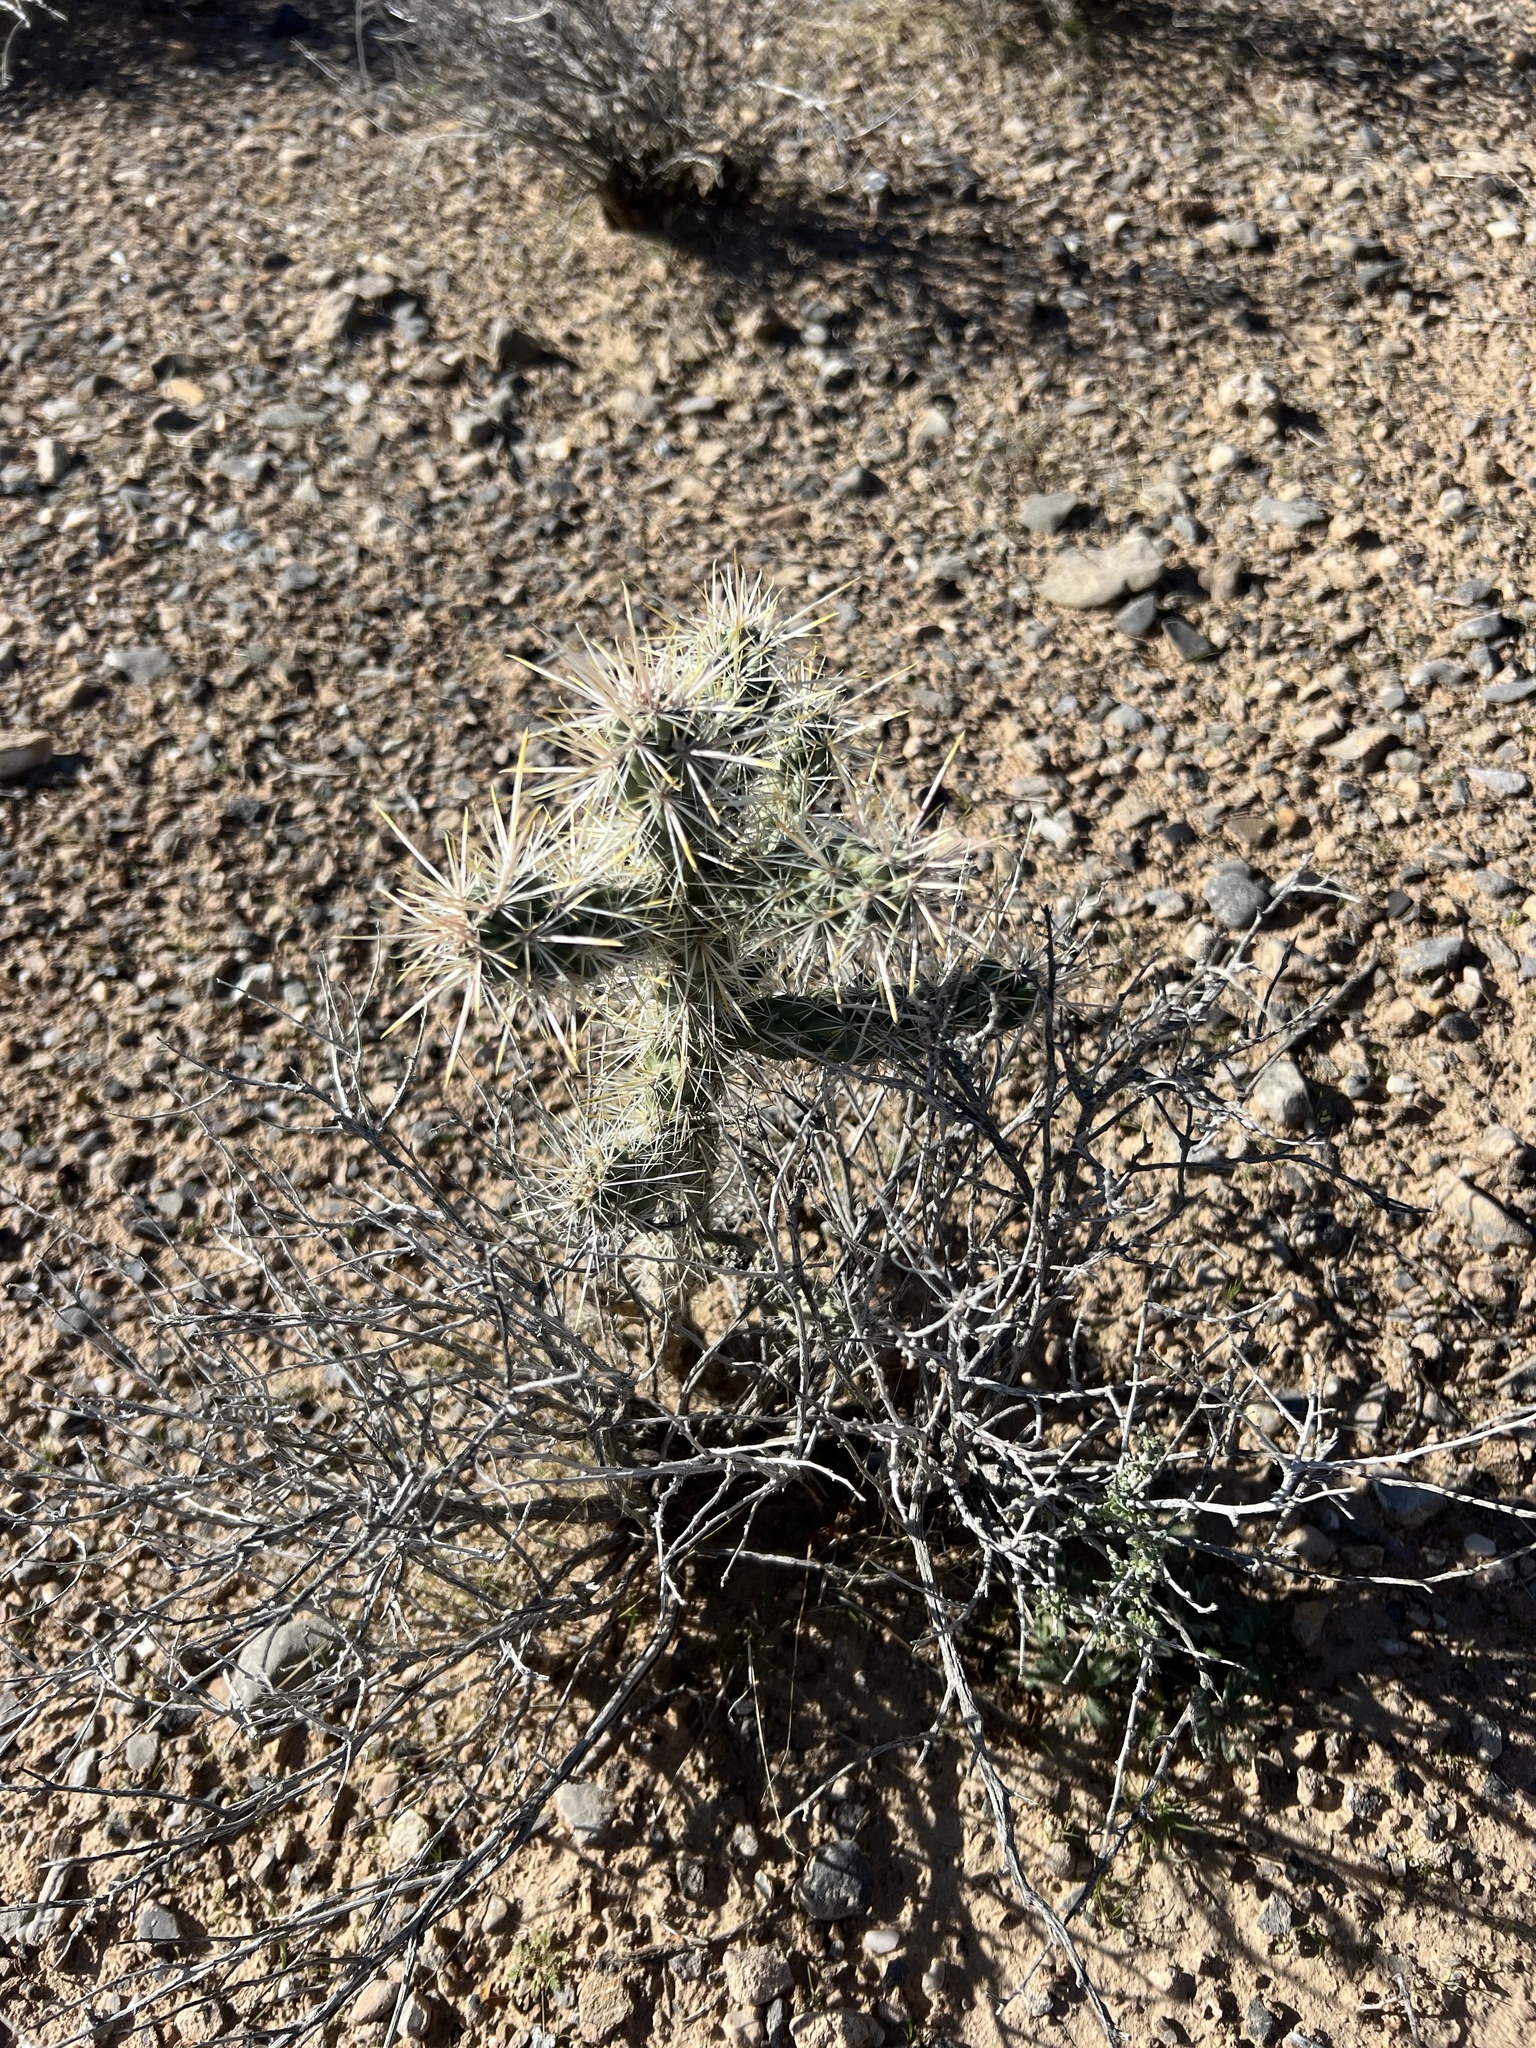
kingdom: Plantae
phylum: Tracheophyta
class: Magnoliopsida
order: Caryophyllales
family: Cactaceae
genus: Cylindropuntia
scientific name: Cylindropuntia echinocarpa
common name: Ground cholla
